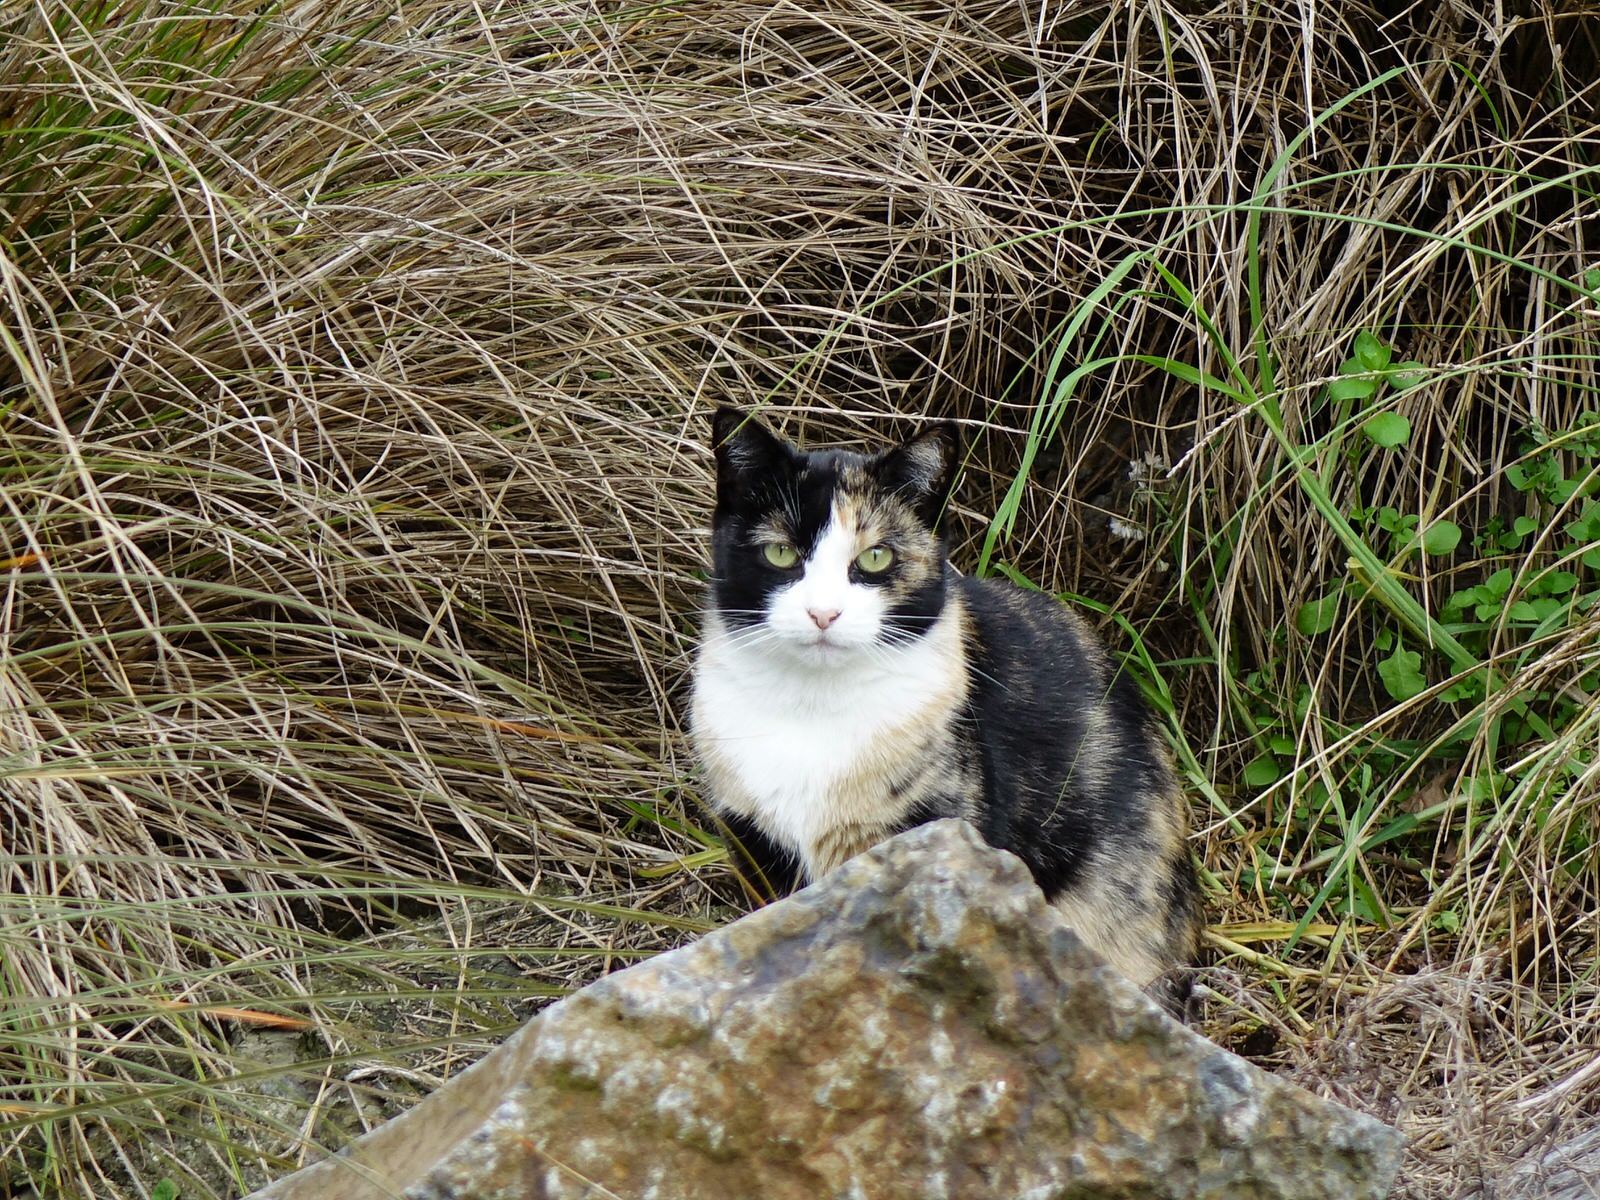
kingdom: Animalia
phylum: Chordata
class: Mammalia
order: Carnivora
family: Felidae
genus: Felis
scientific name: Felis catus
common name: Domestic cat
